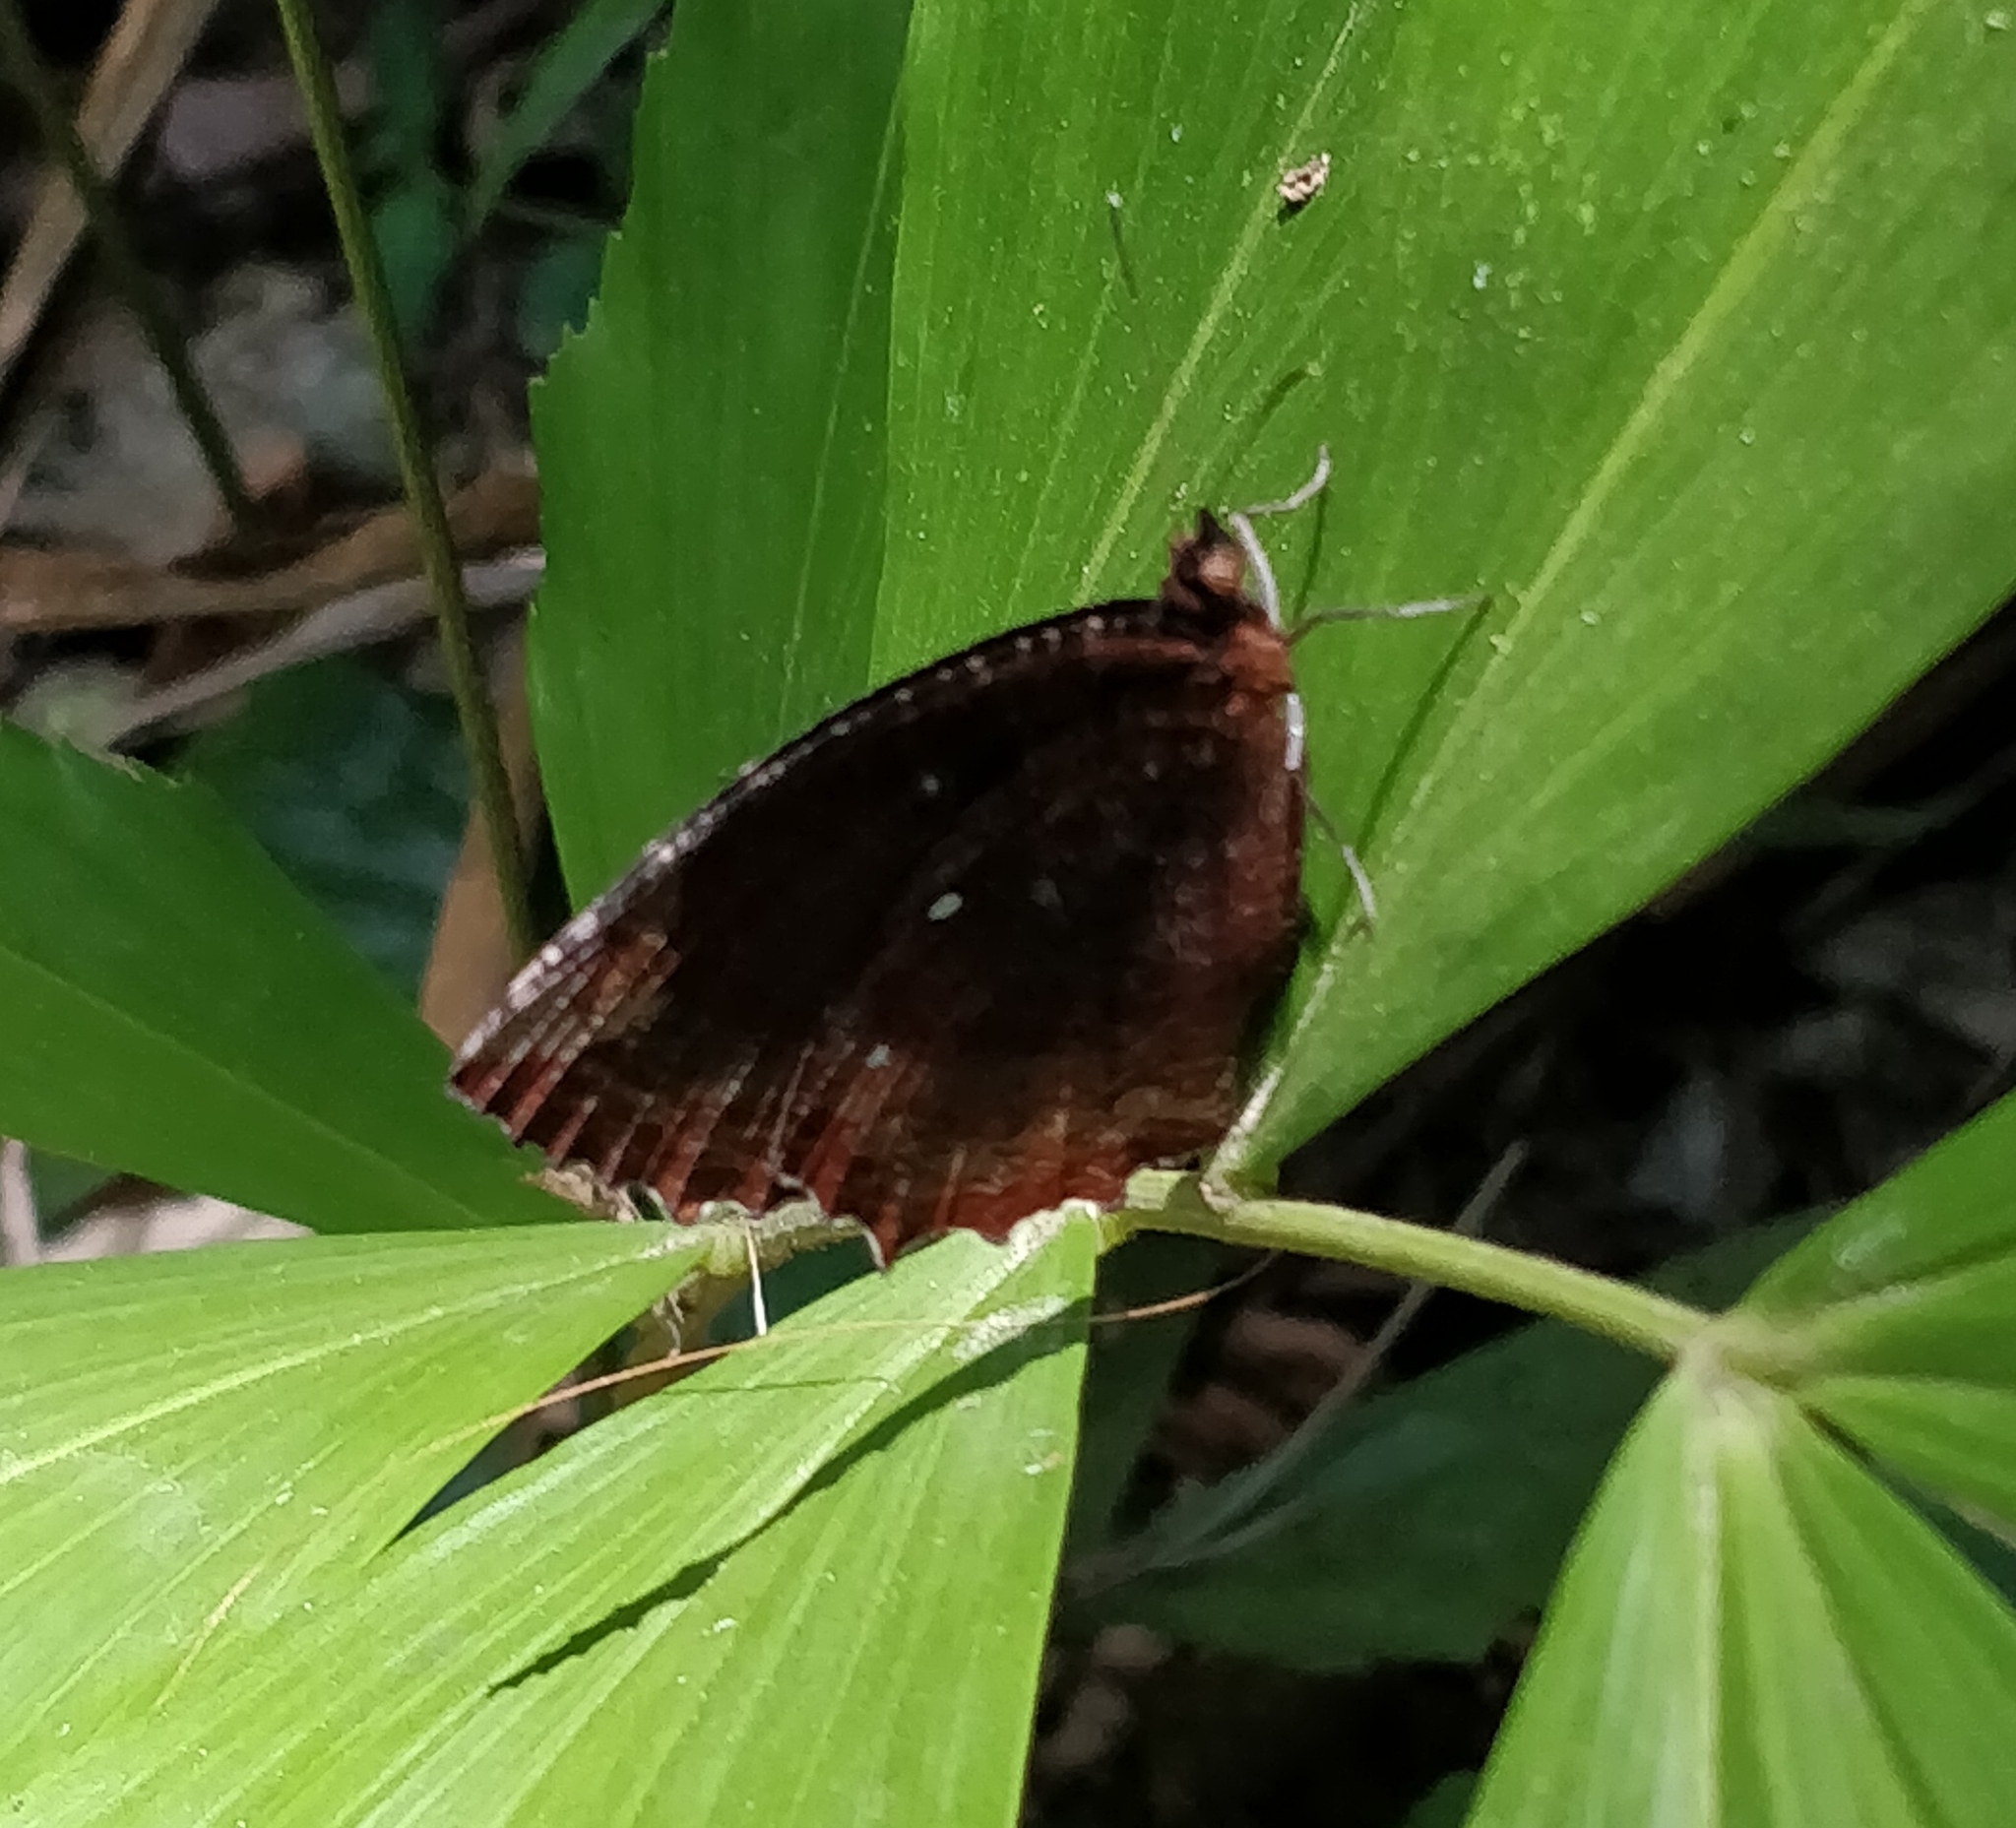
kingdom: Animalia
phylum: Arthropoda
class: Insecta
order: Lepidoptera
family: Nymphalidae
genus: Elymnias
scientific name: Elymnias hypermnestra
